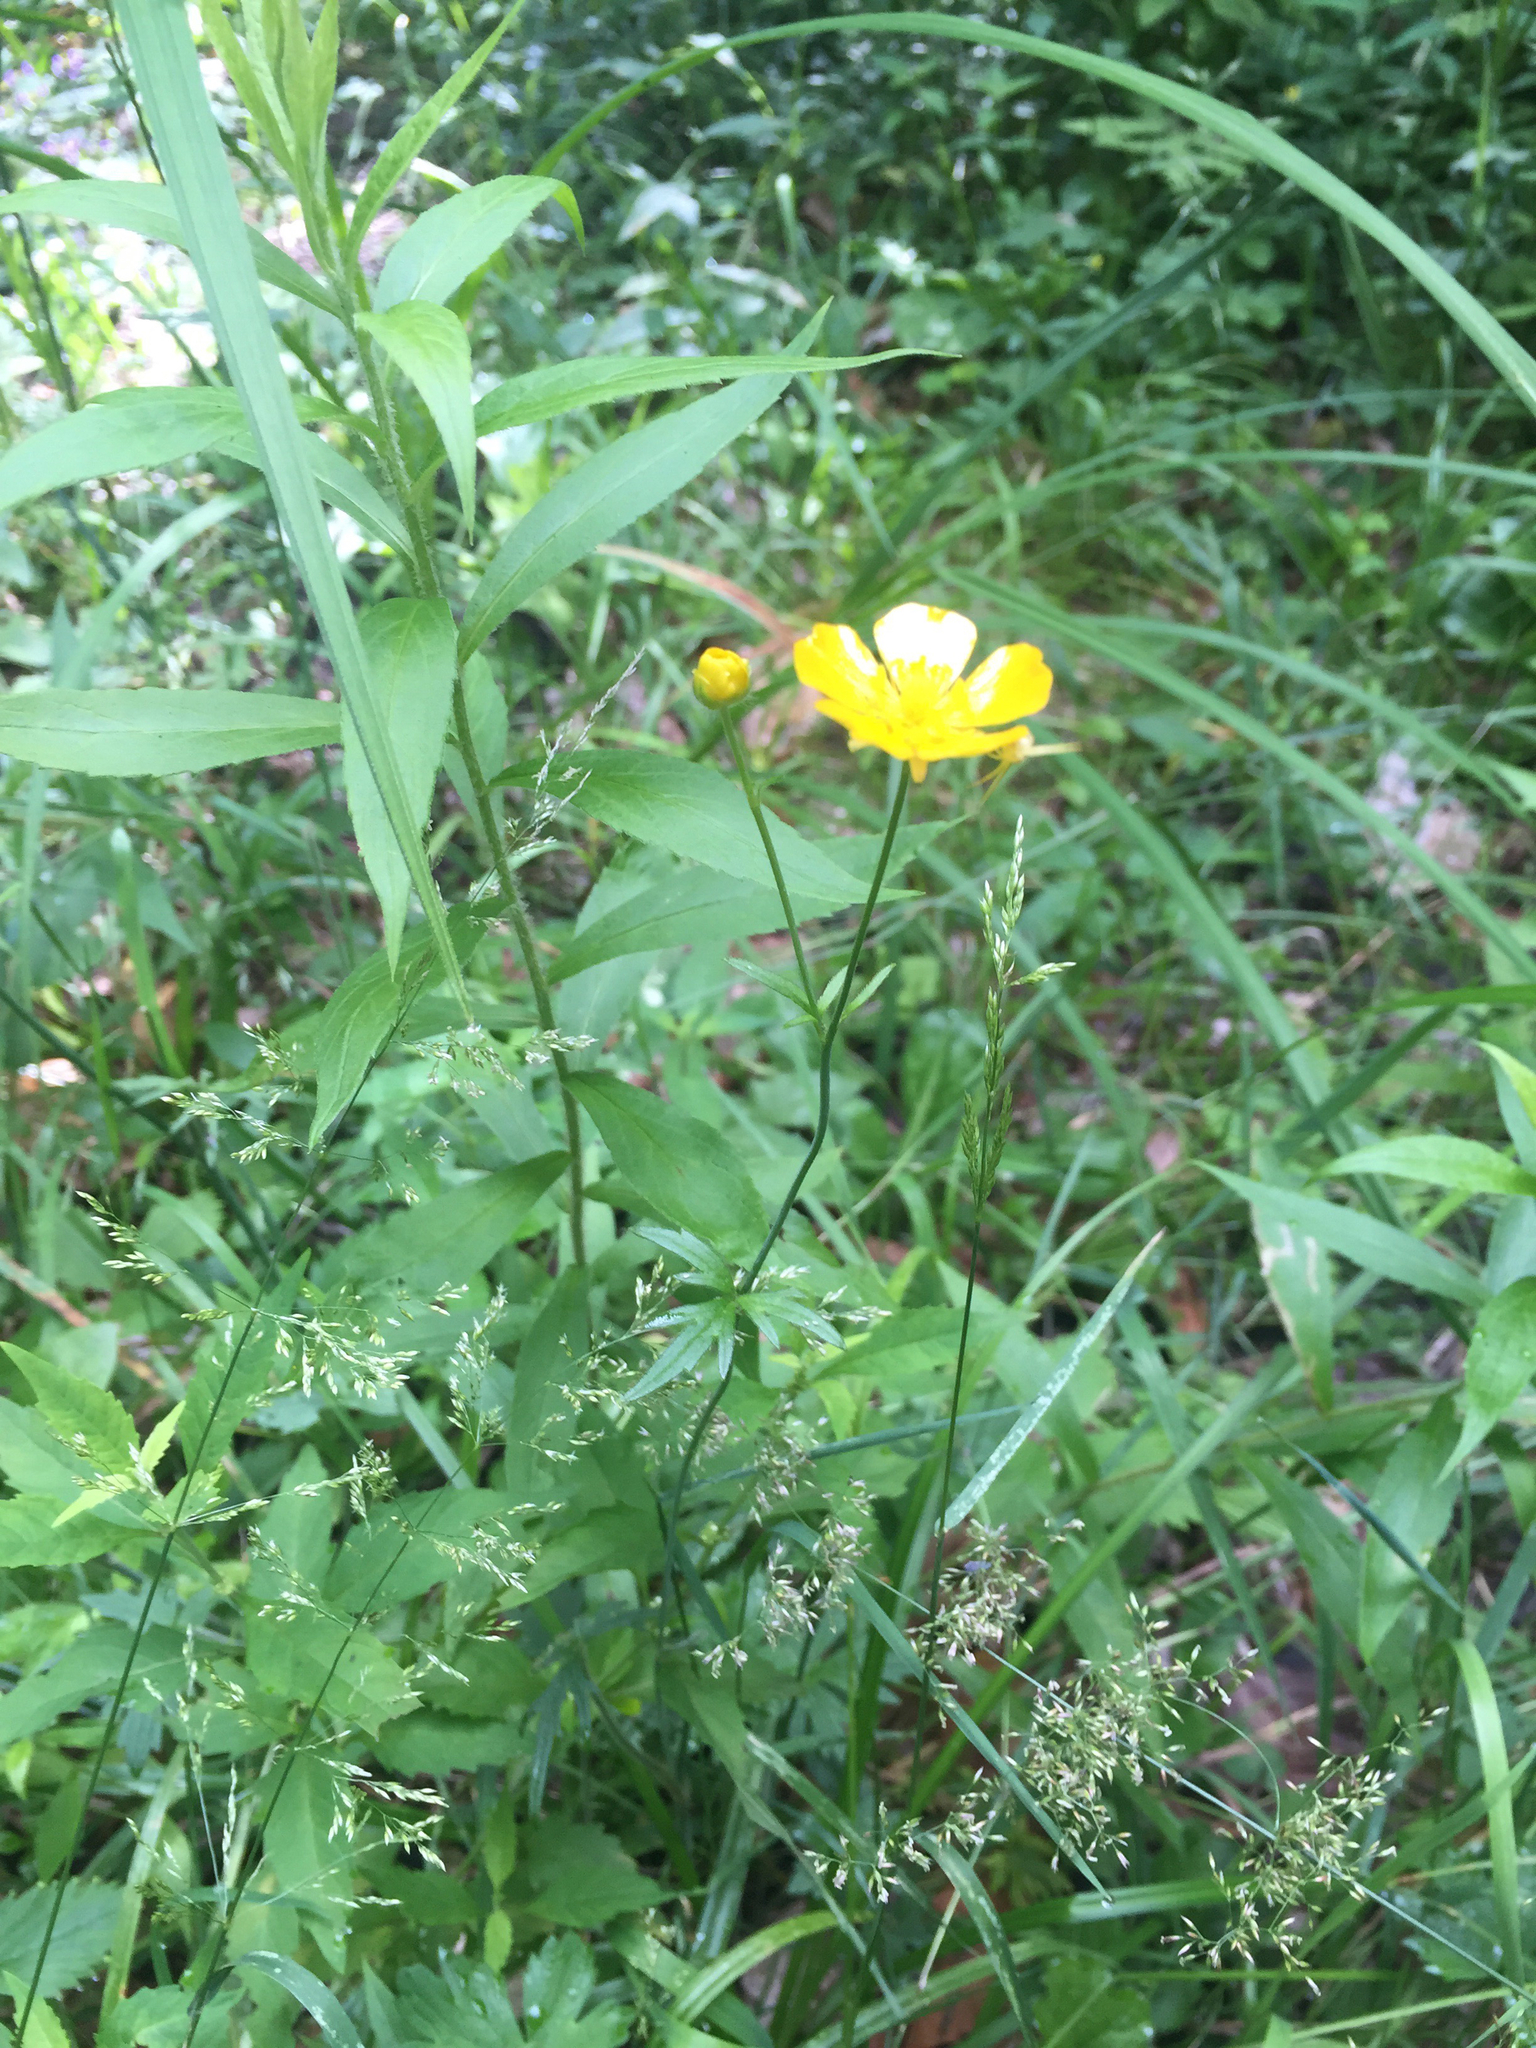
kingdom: Plantae
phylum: Tracheophyta
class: Magnoliopsida
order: Ranunculales
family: Ranunculaceae
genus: Ranunculus
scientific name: Ranunculus acris
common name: Meadow buttercup
